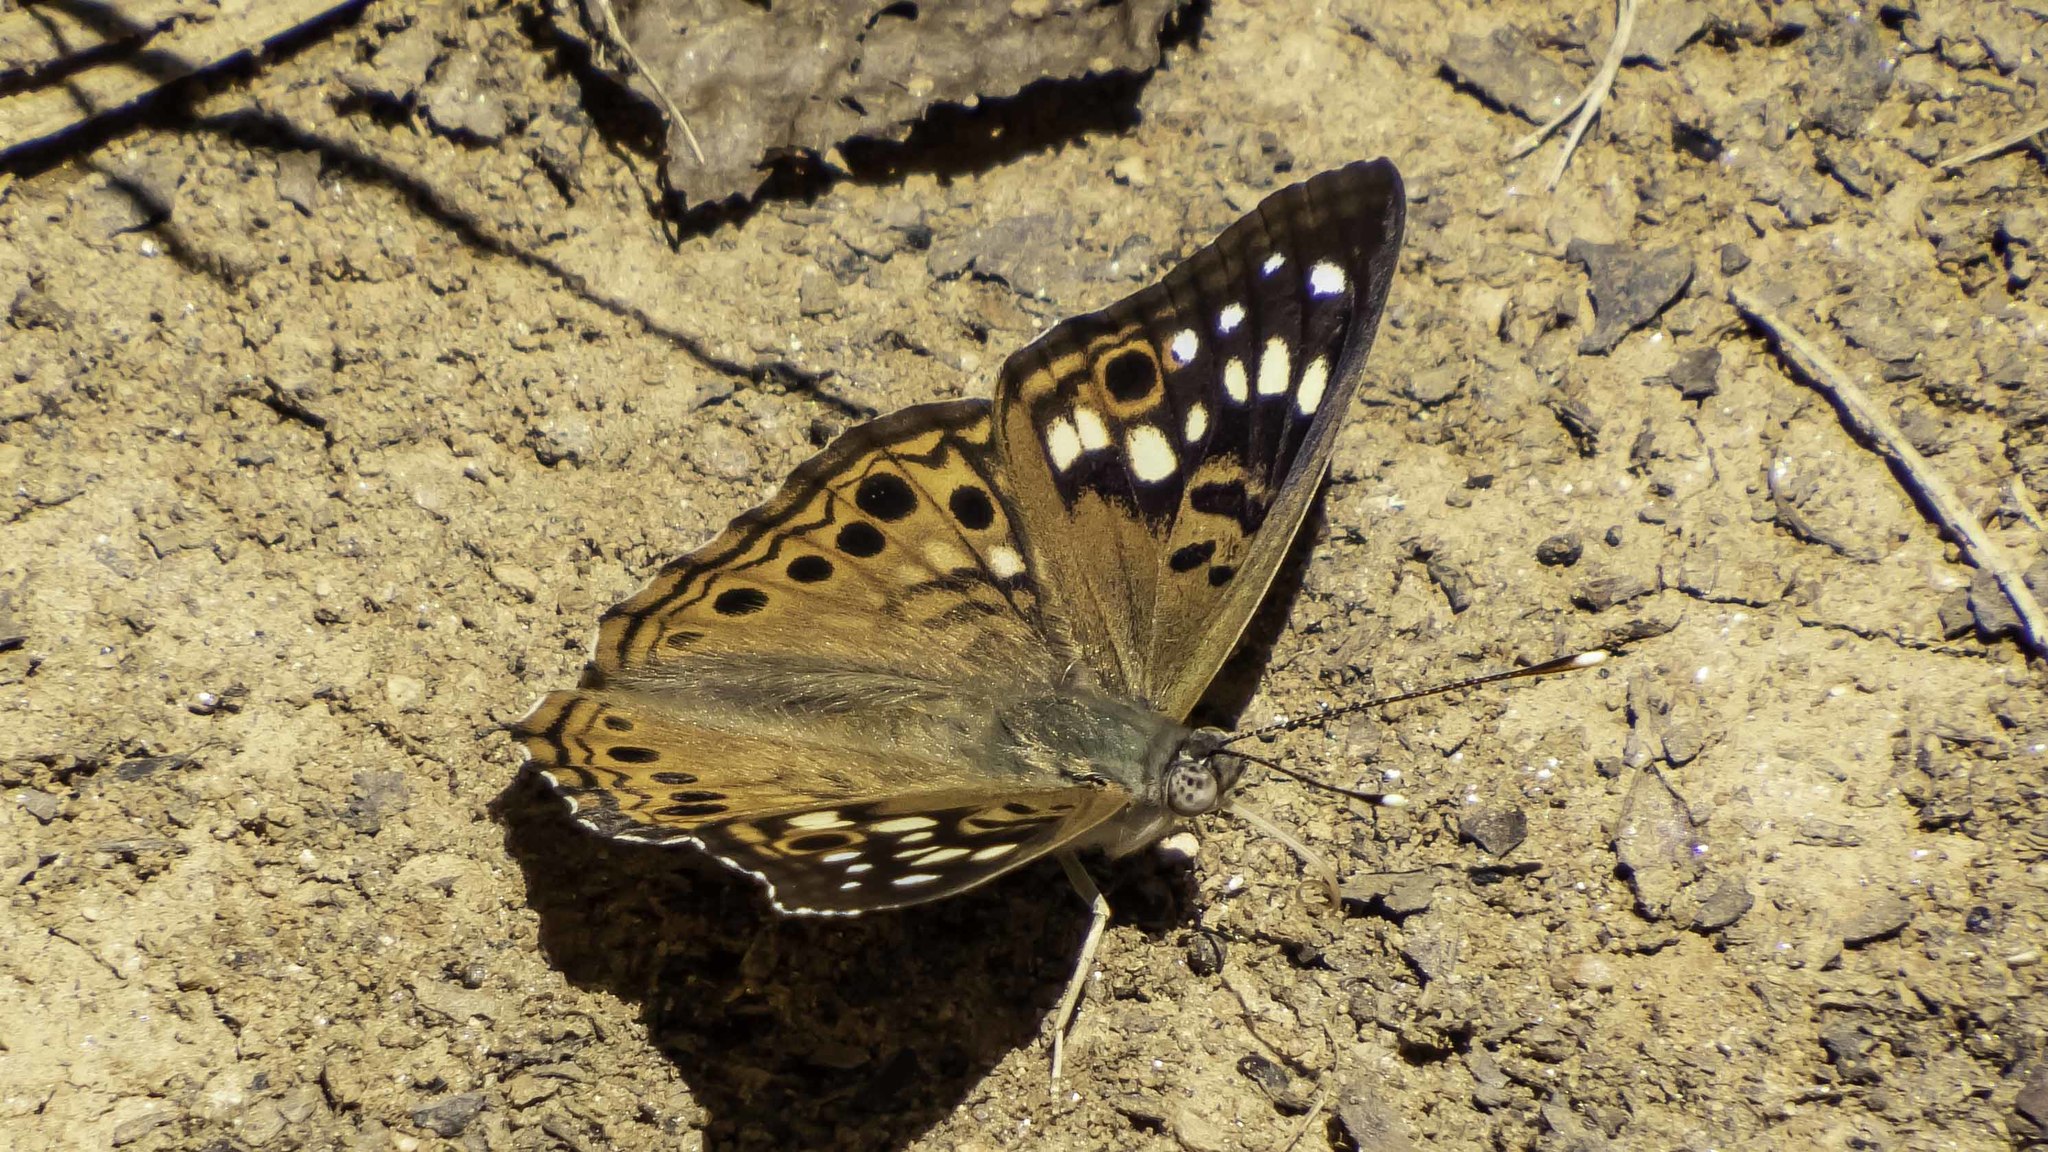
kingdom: Animalia
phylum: Arthropoda
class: Insecta
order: Lepidoptera
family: Nymphalidae
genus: Asterocampa
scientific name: Asterocampa celtis
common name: Hackberry emperor
